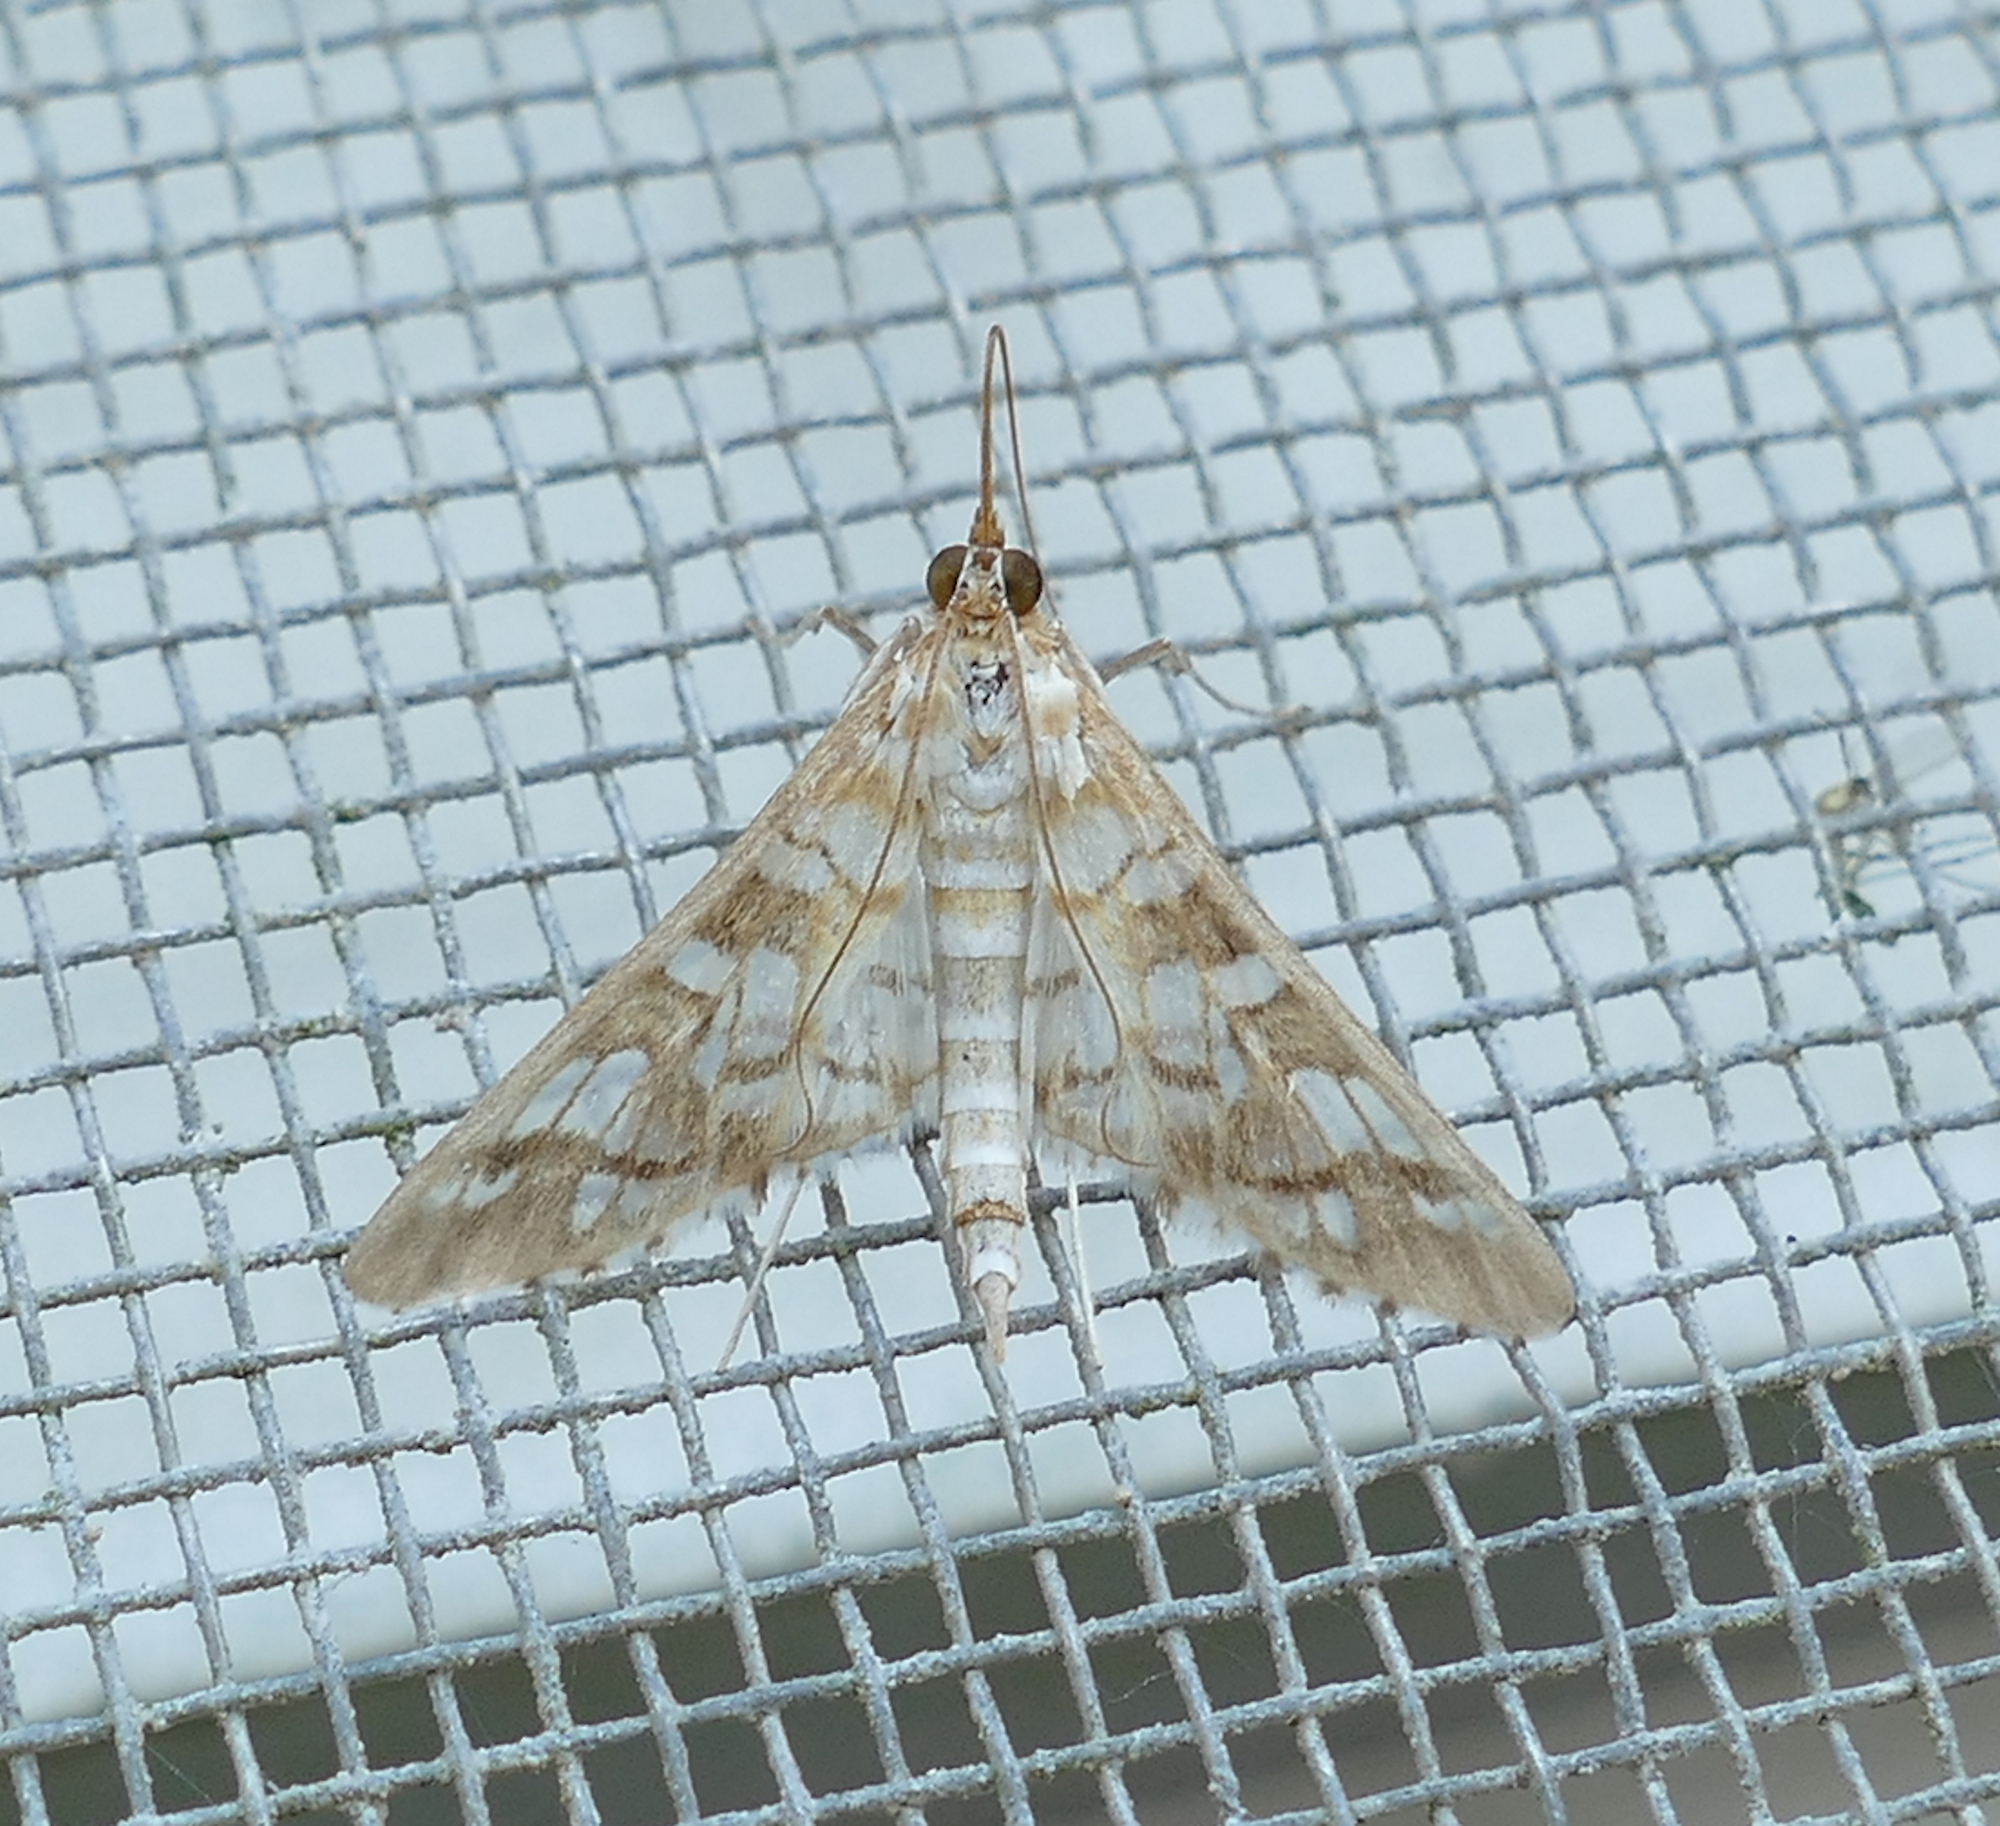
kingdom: Animalia
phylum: Arthropoda
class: Insecta
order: Lepidoptera
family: Crambidae
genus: Epipagis
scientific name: Epipagis fenestralis
